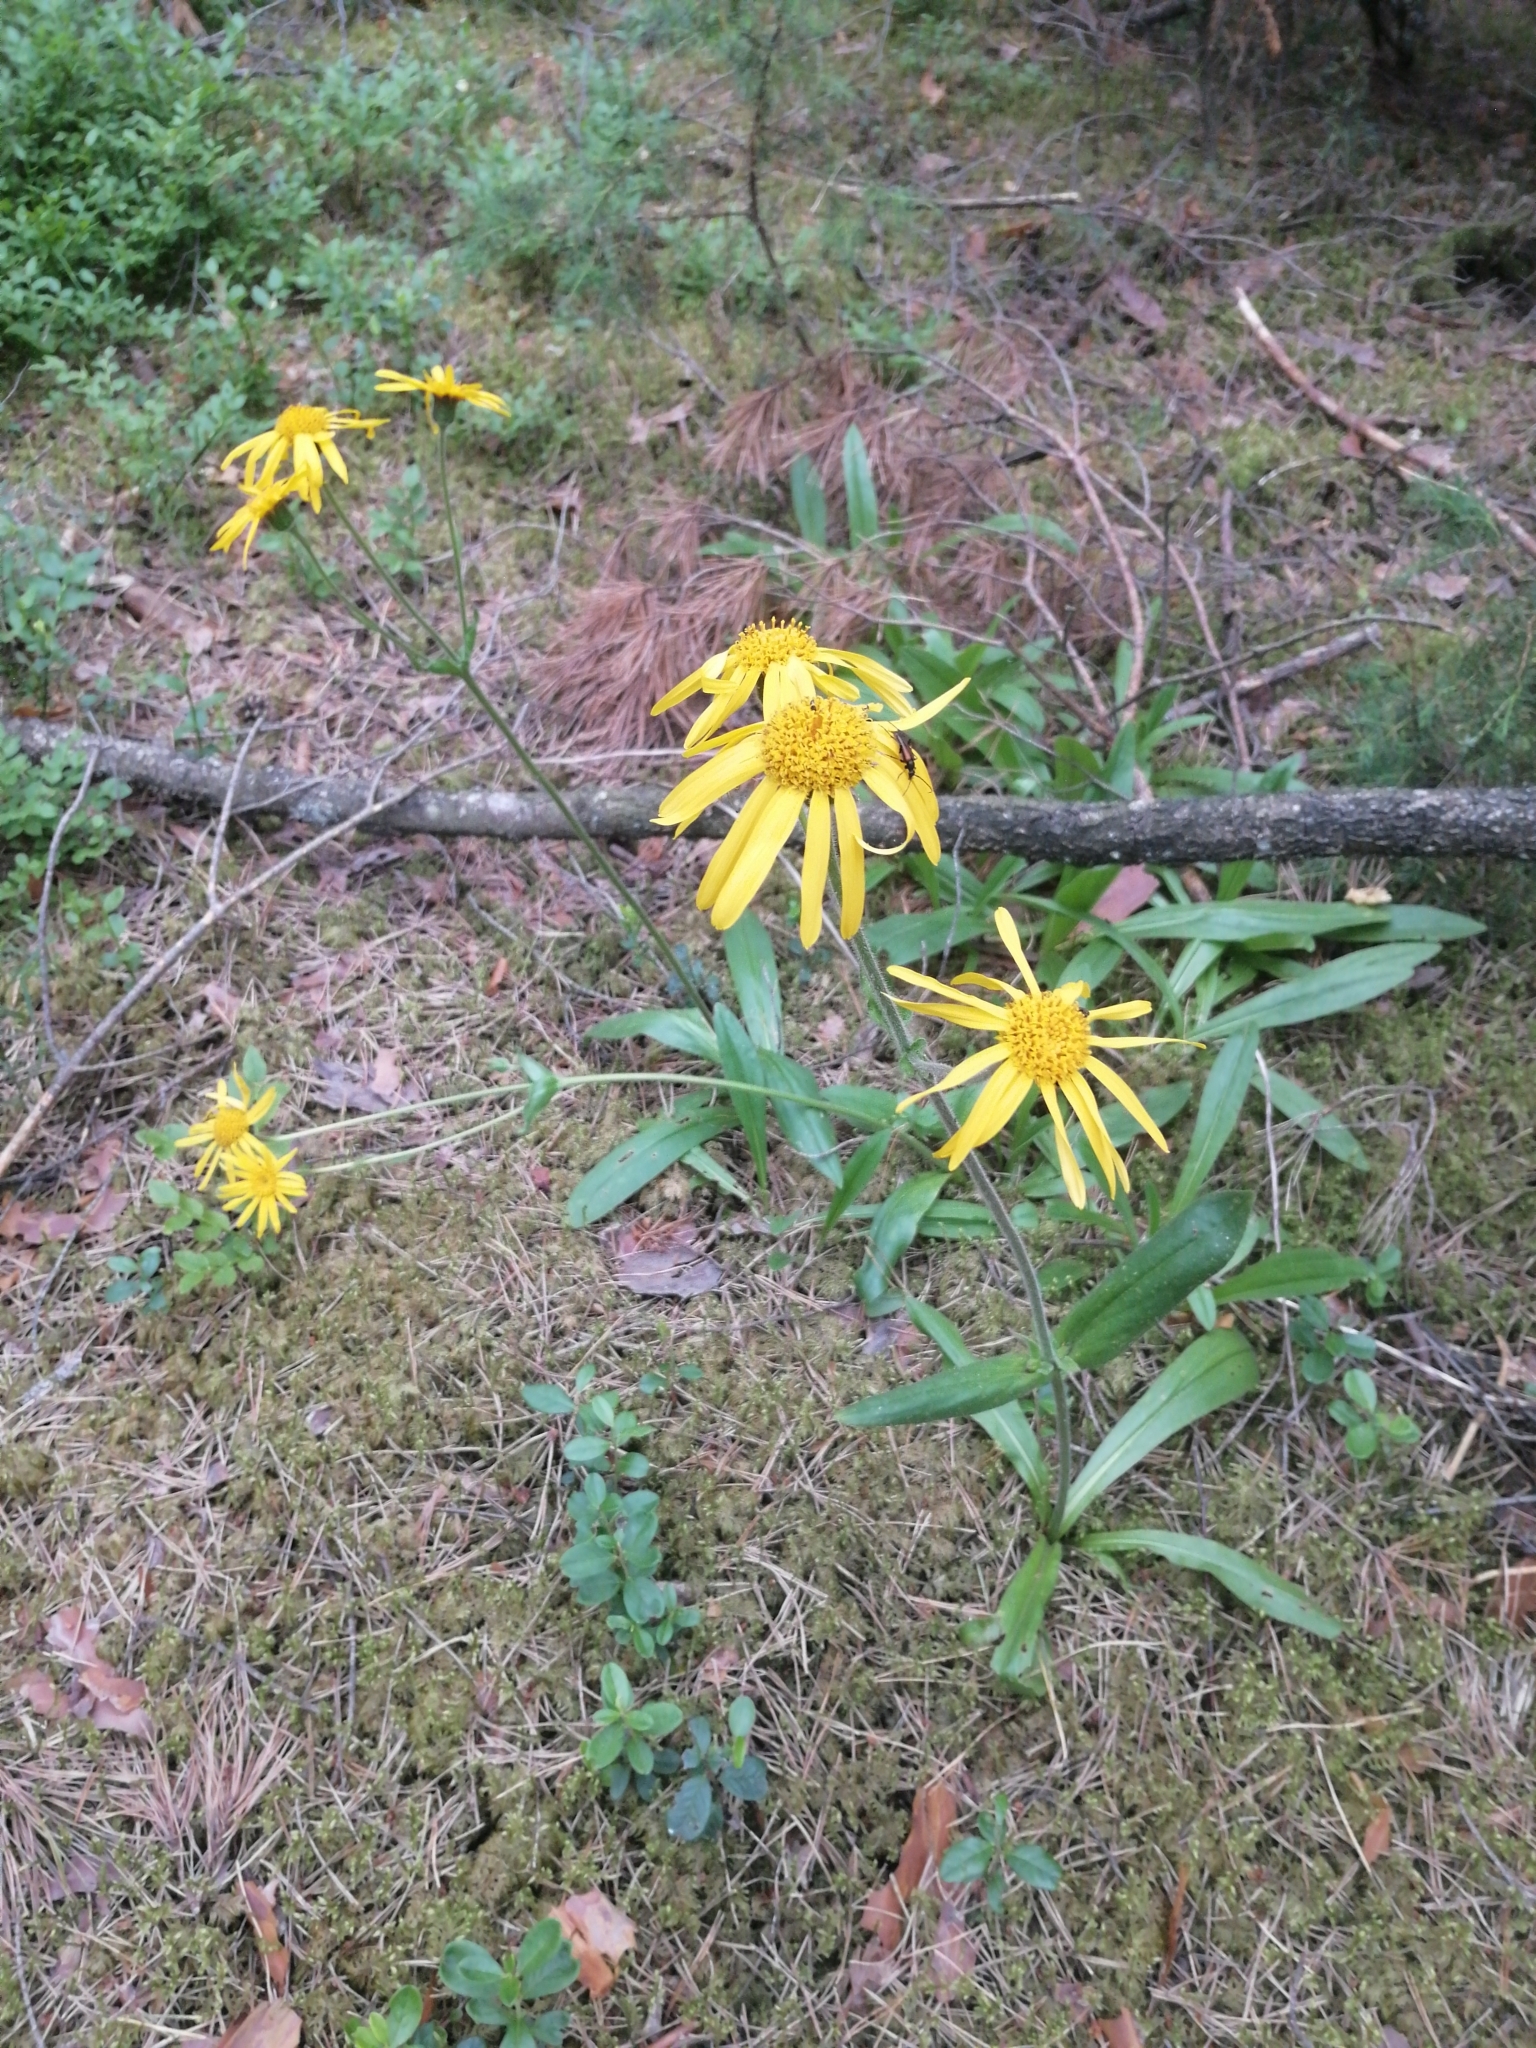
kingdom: Plantae
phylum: Tracheophyta
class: Magnoliopsida
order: Asterales
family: Asteraceae
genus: Arnica
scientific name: Arnica montana
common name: Leopard's bane
